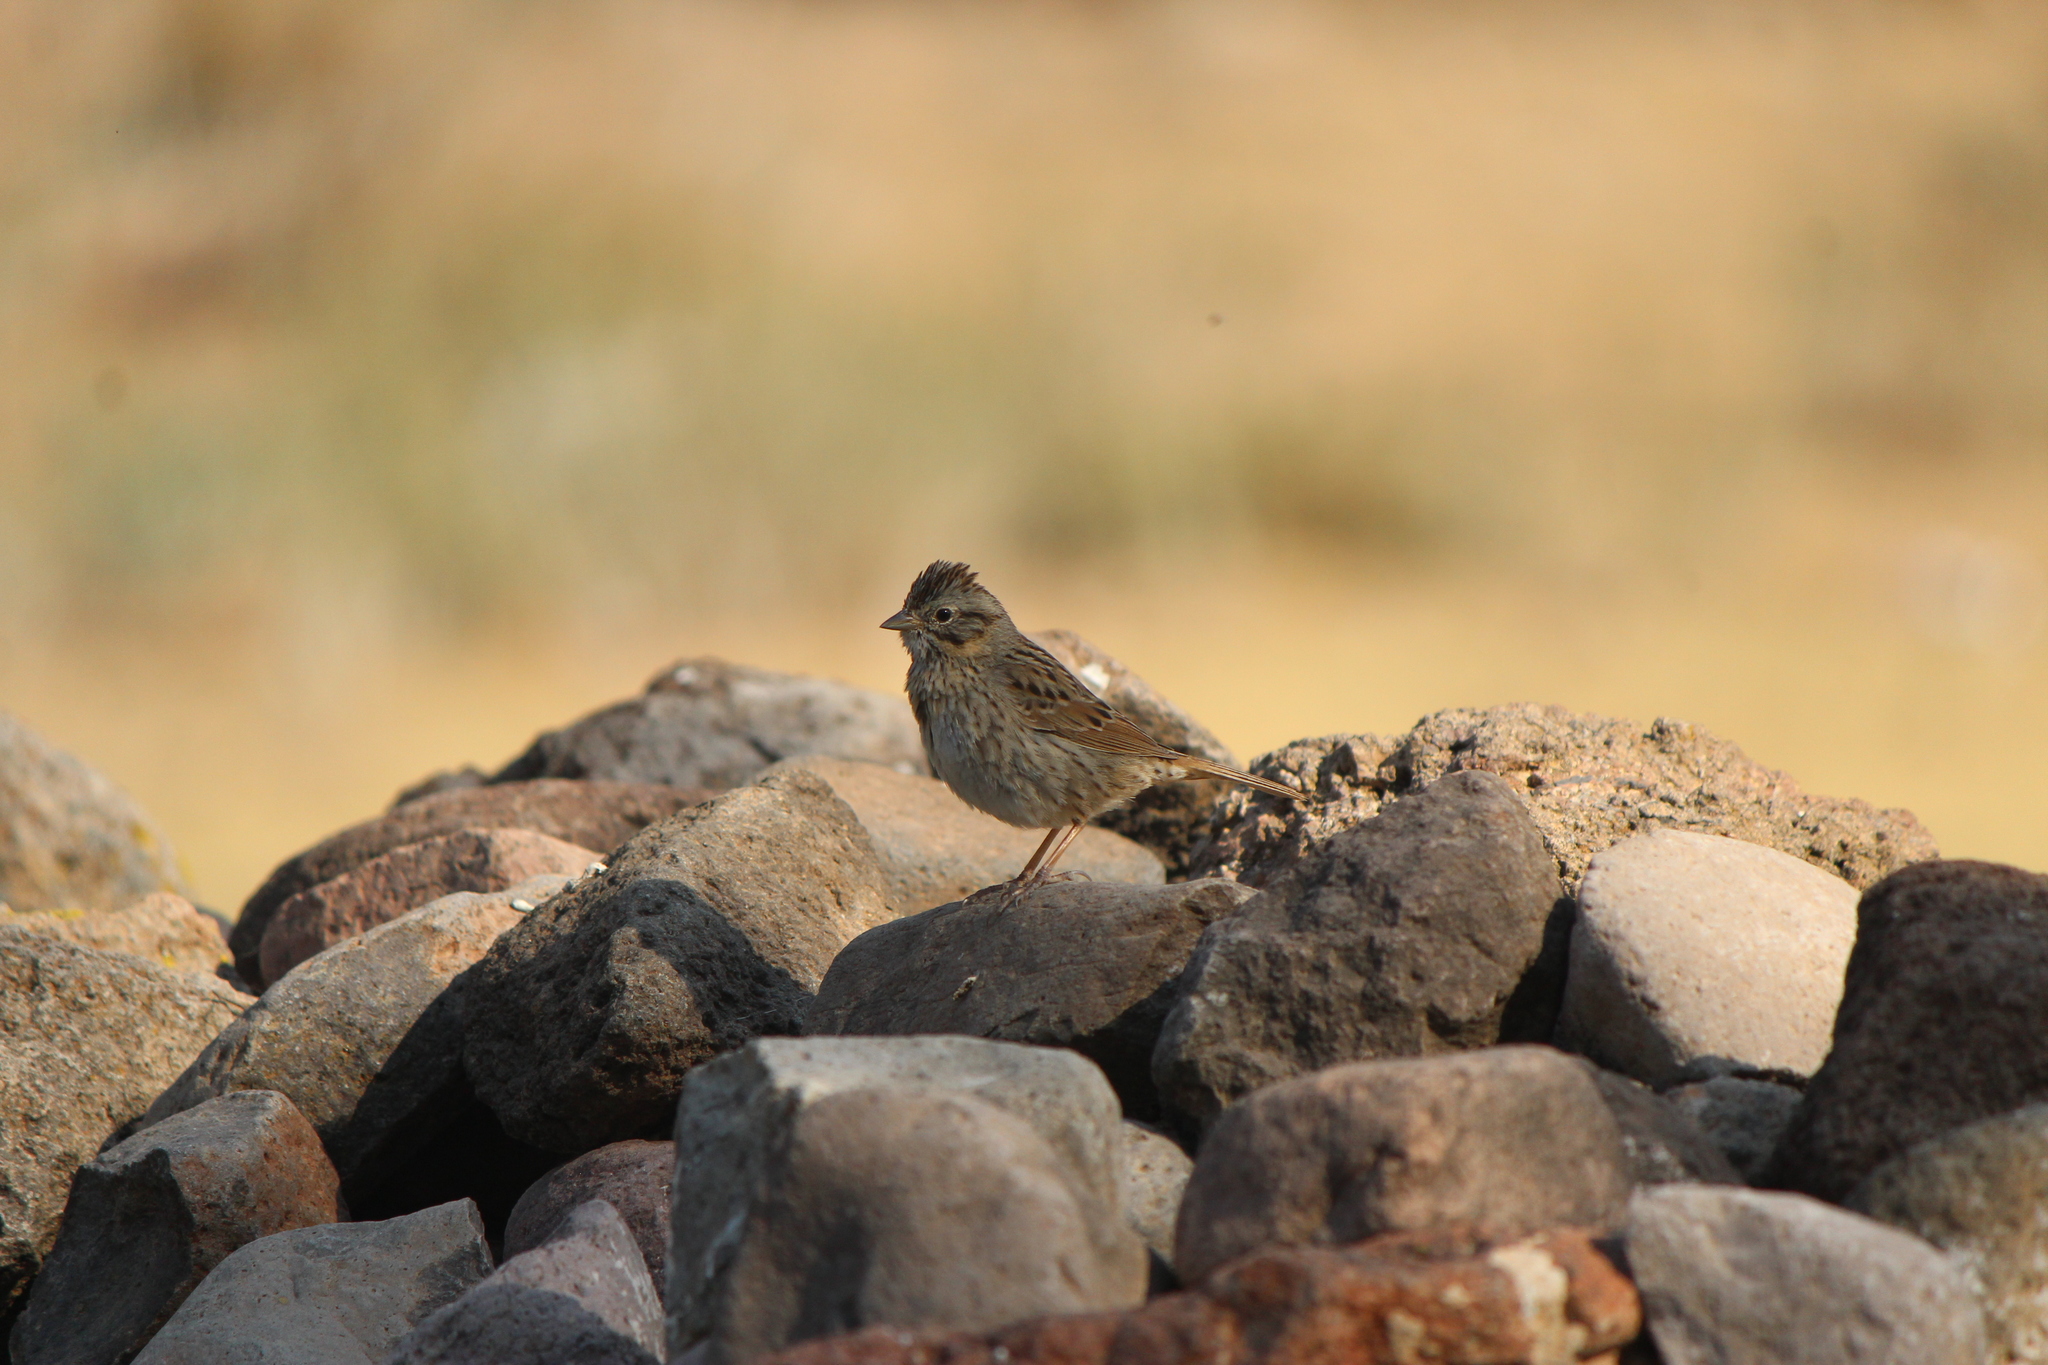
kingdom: Animalia
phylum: Chordata
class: Aves
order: Passeriformes
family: Passerellidae
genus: Melospiza
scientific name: Melospiza lincolnii
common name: Lincoln's sparrow
